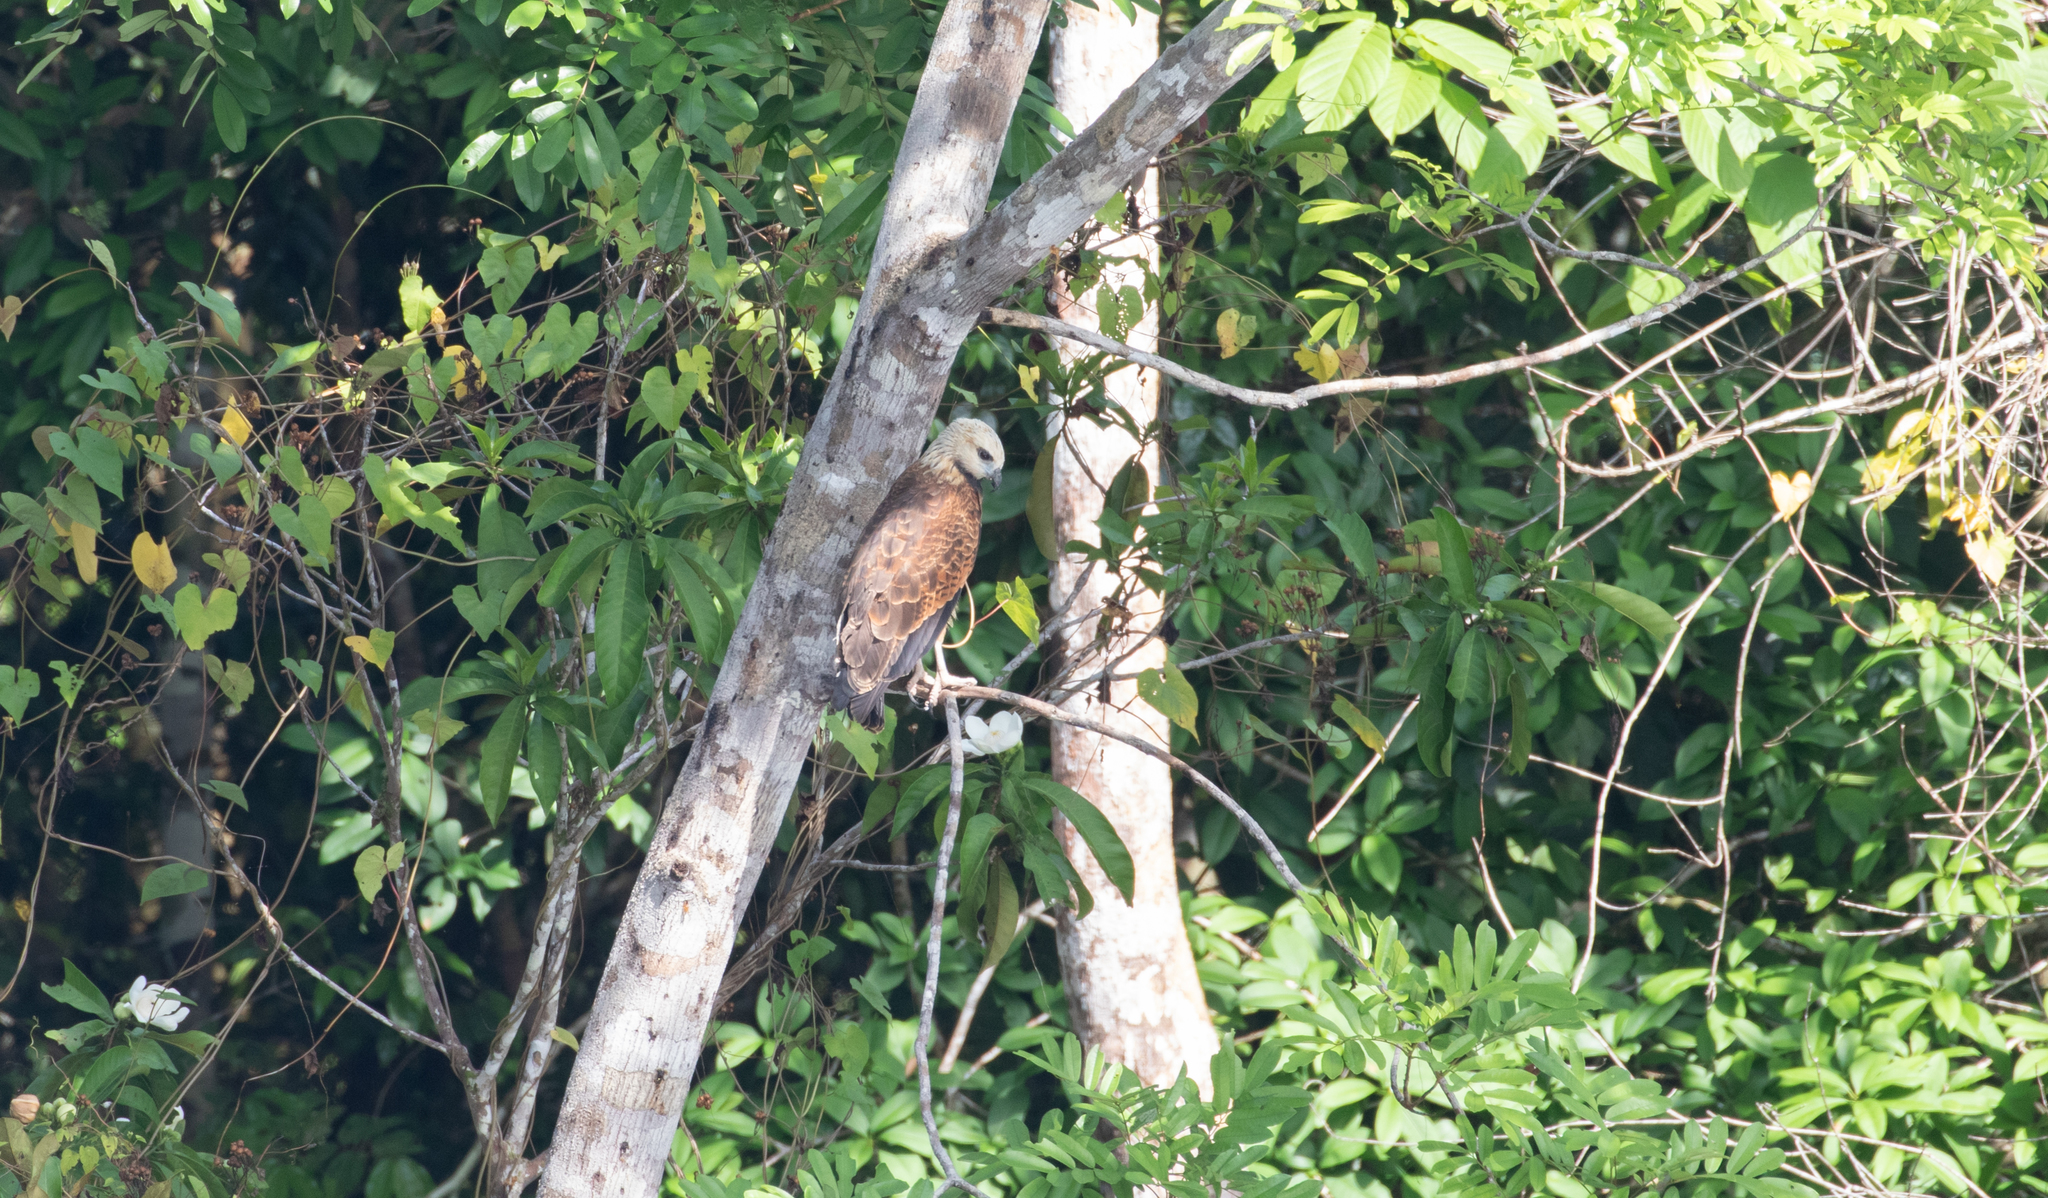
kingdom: Animalia
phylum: Chordata
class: Aves
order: Accipitriformes
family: Accipitridae
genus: Busarellus
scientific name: Busarellus nigricollis
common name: Black-collared hawk
